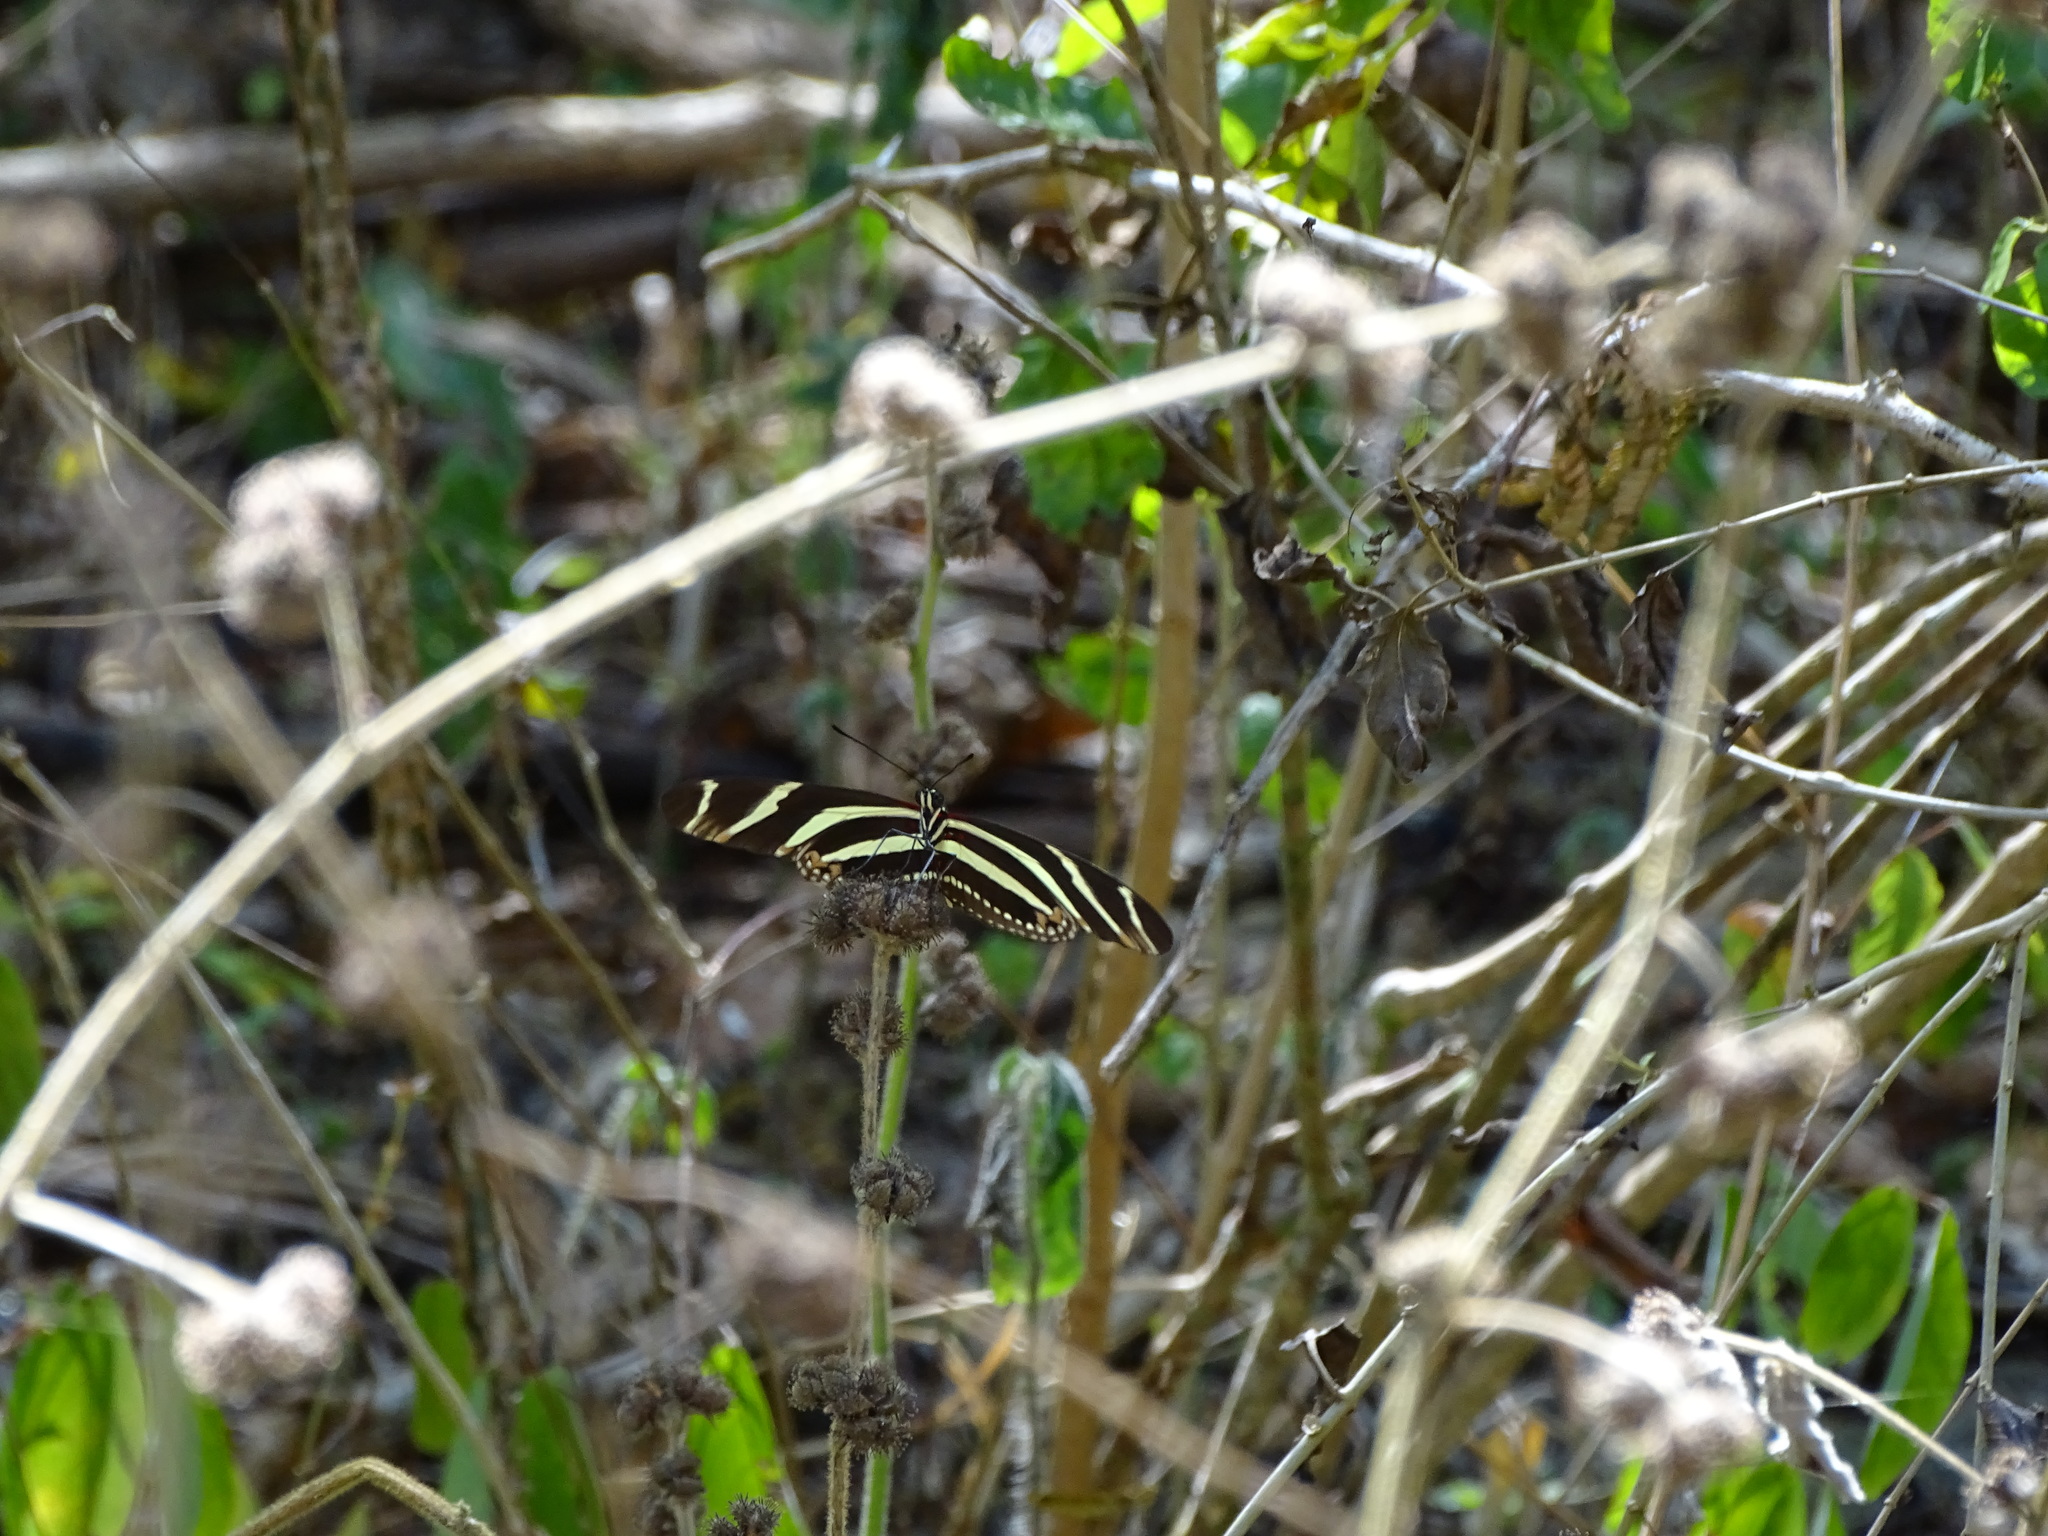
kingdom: Animalia
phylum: Arthropoda
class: Insecta
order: Lepidoptera
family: Nymphalidae
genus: Heliconius
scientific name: Heliconius charithonia
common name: Zebra long wing
